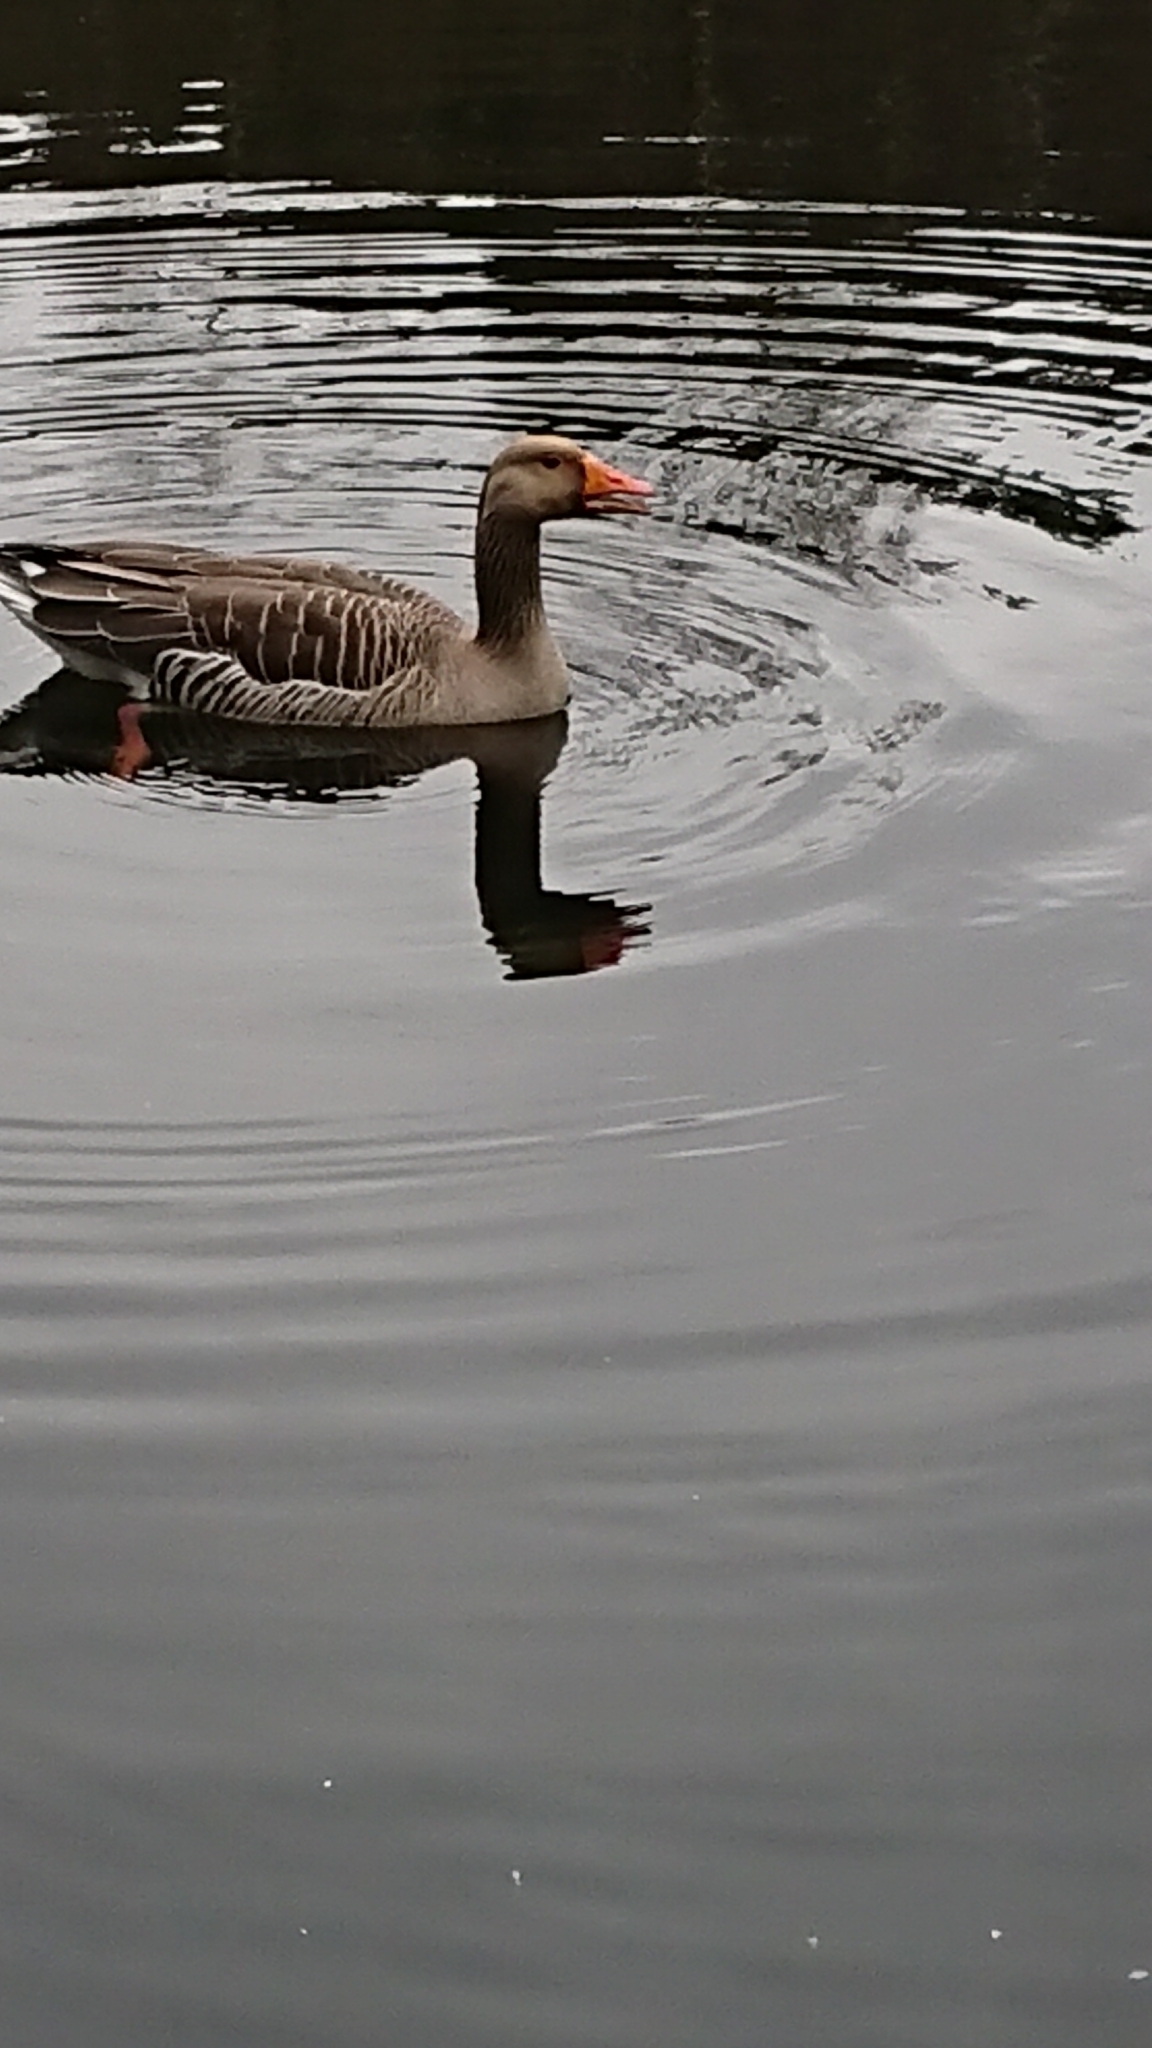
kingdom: Animalia
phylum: Chordata
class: Aves
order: Anseriformes
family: Anatidae
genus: Anser
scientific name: Anser anser
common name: Greylag goose
